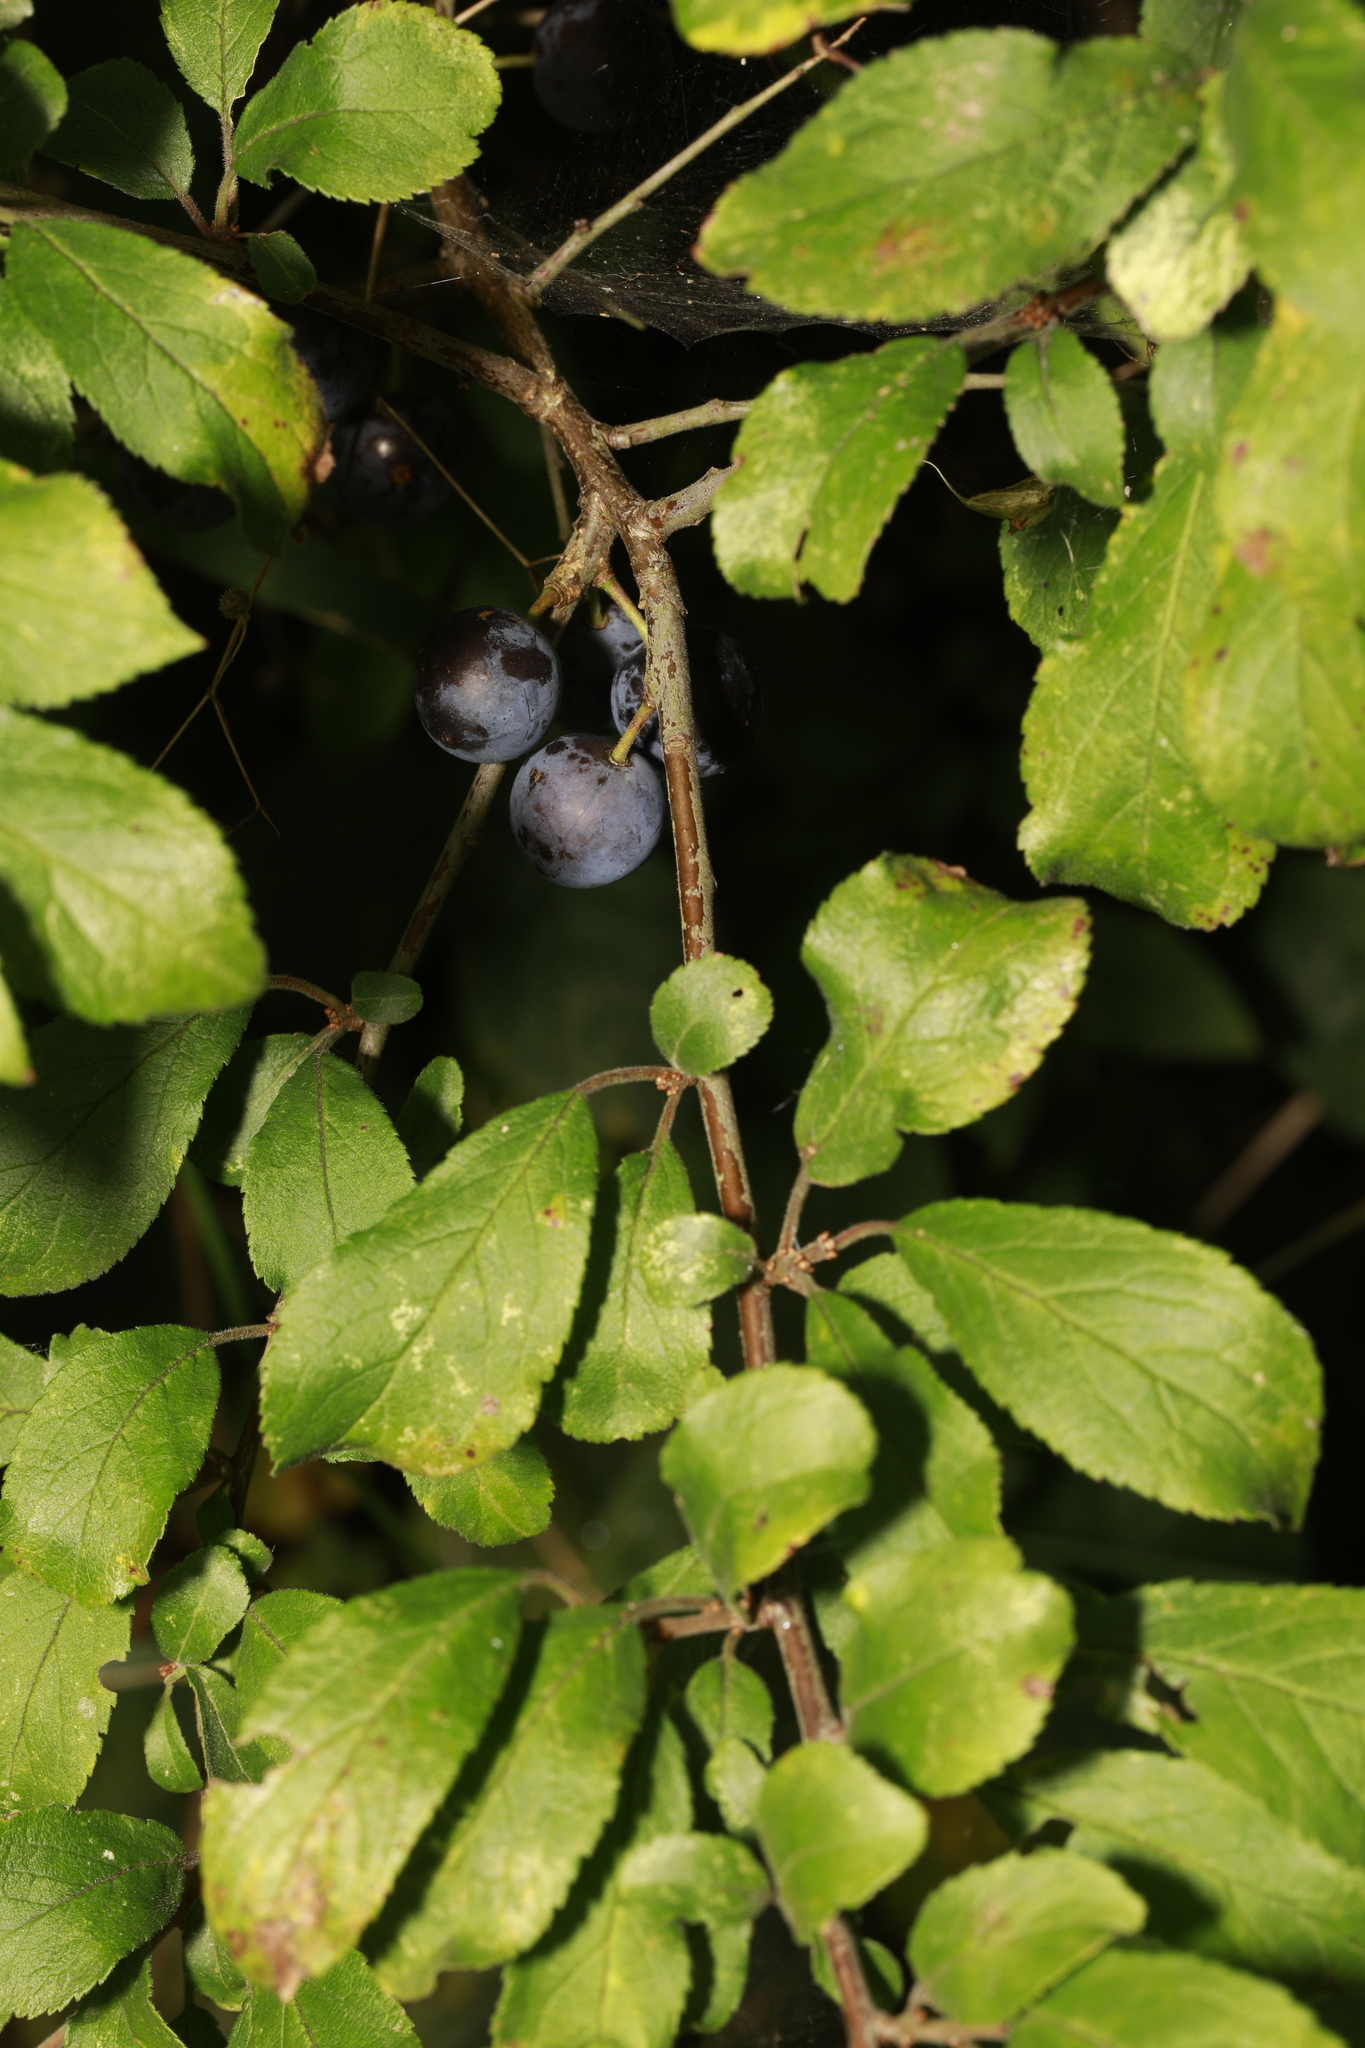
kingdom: Plantae
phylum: Tracheophyta
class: Magnoliopsida
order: Rosales
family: Rosaceae
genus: Prunus
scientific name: Prunus spinosa
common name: Blackthorn
